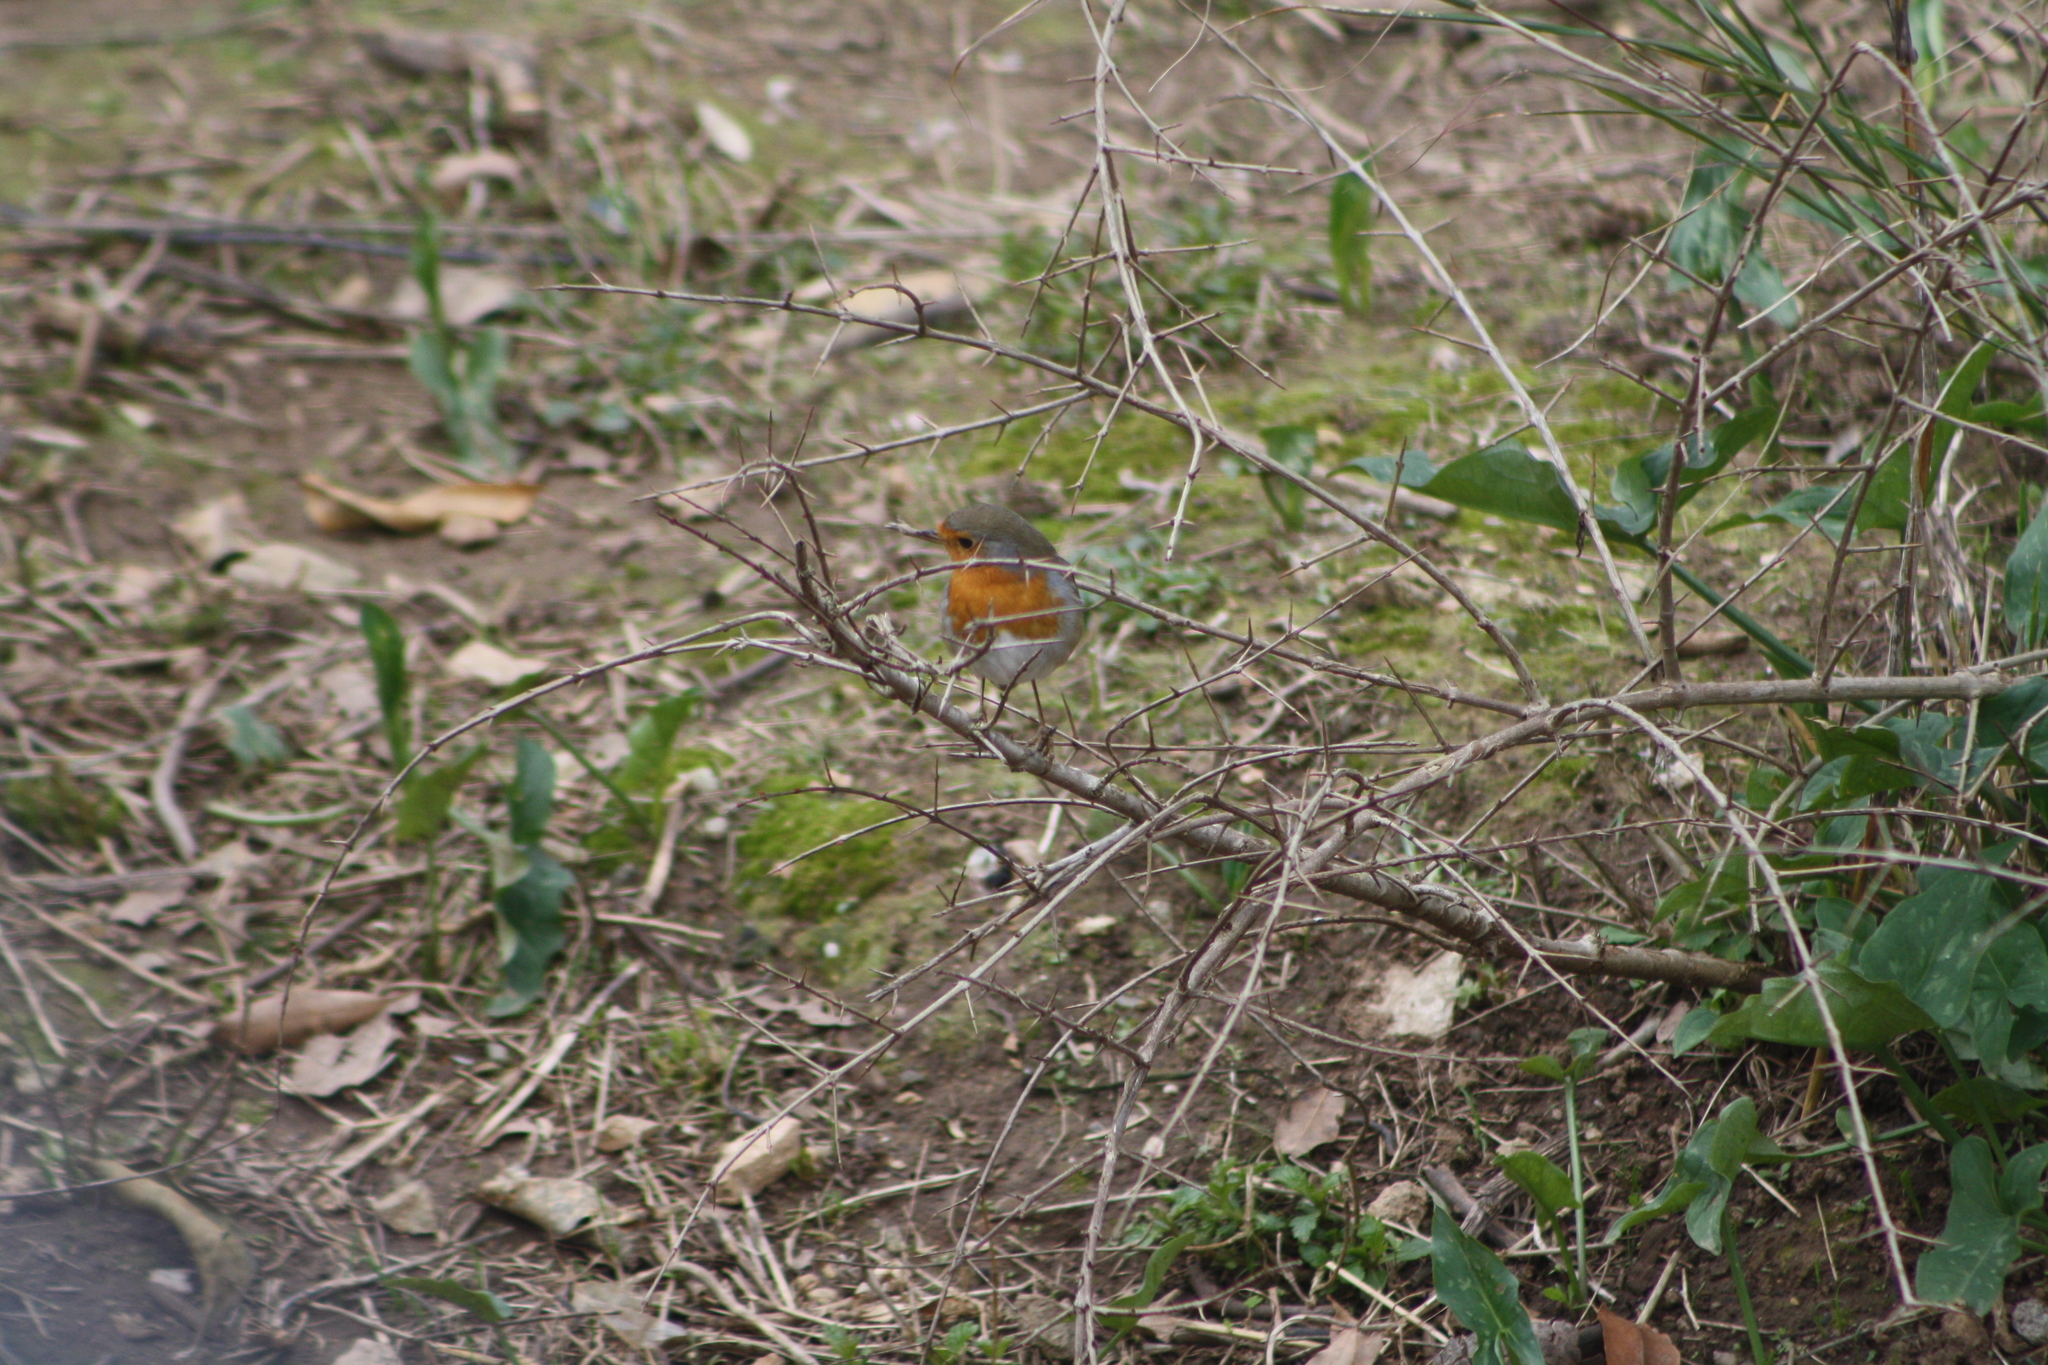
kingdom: Animalia
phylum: Chordata
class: Aves
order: Passeriformes
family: Muscicapidae
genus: Erithacus
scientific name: Erithacus rubecula
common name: European robin
